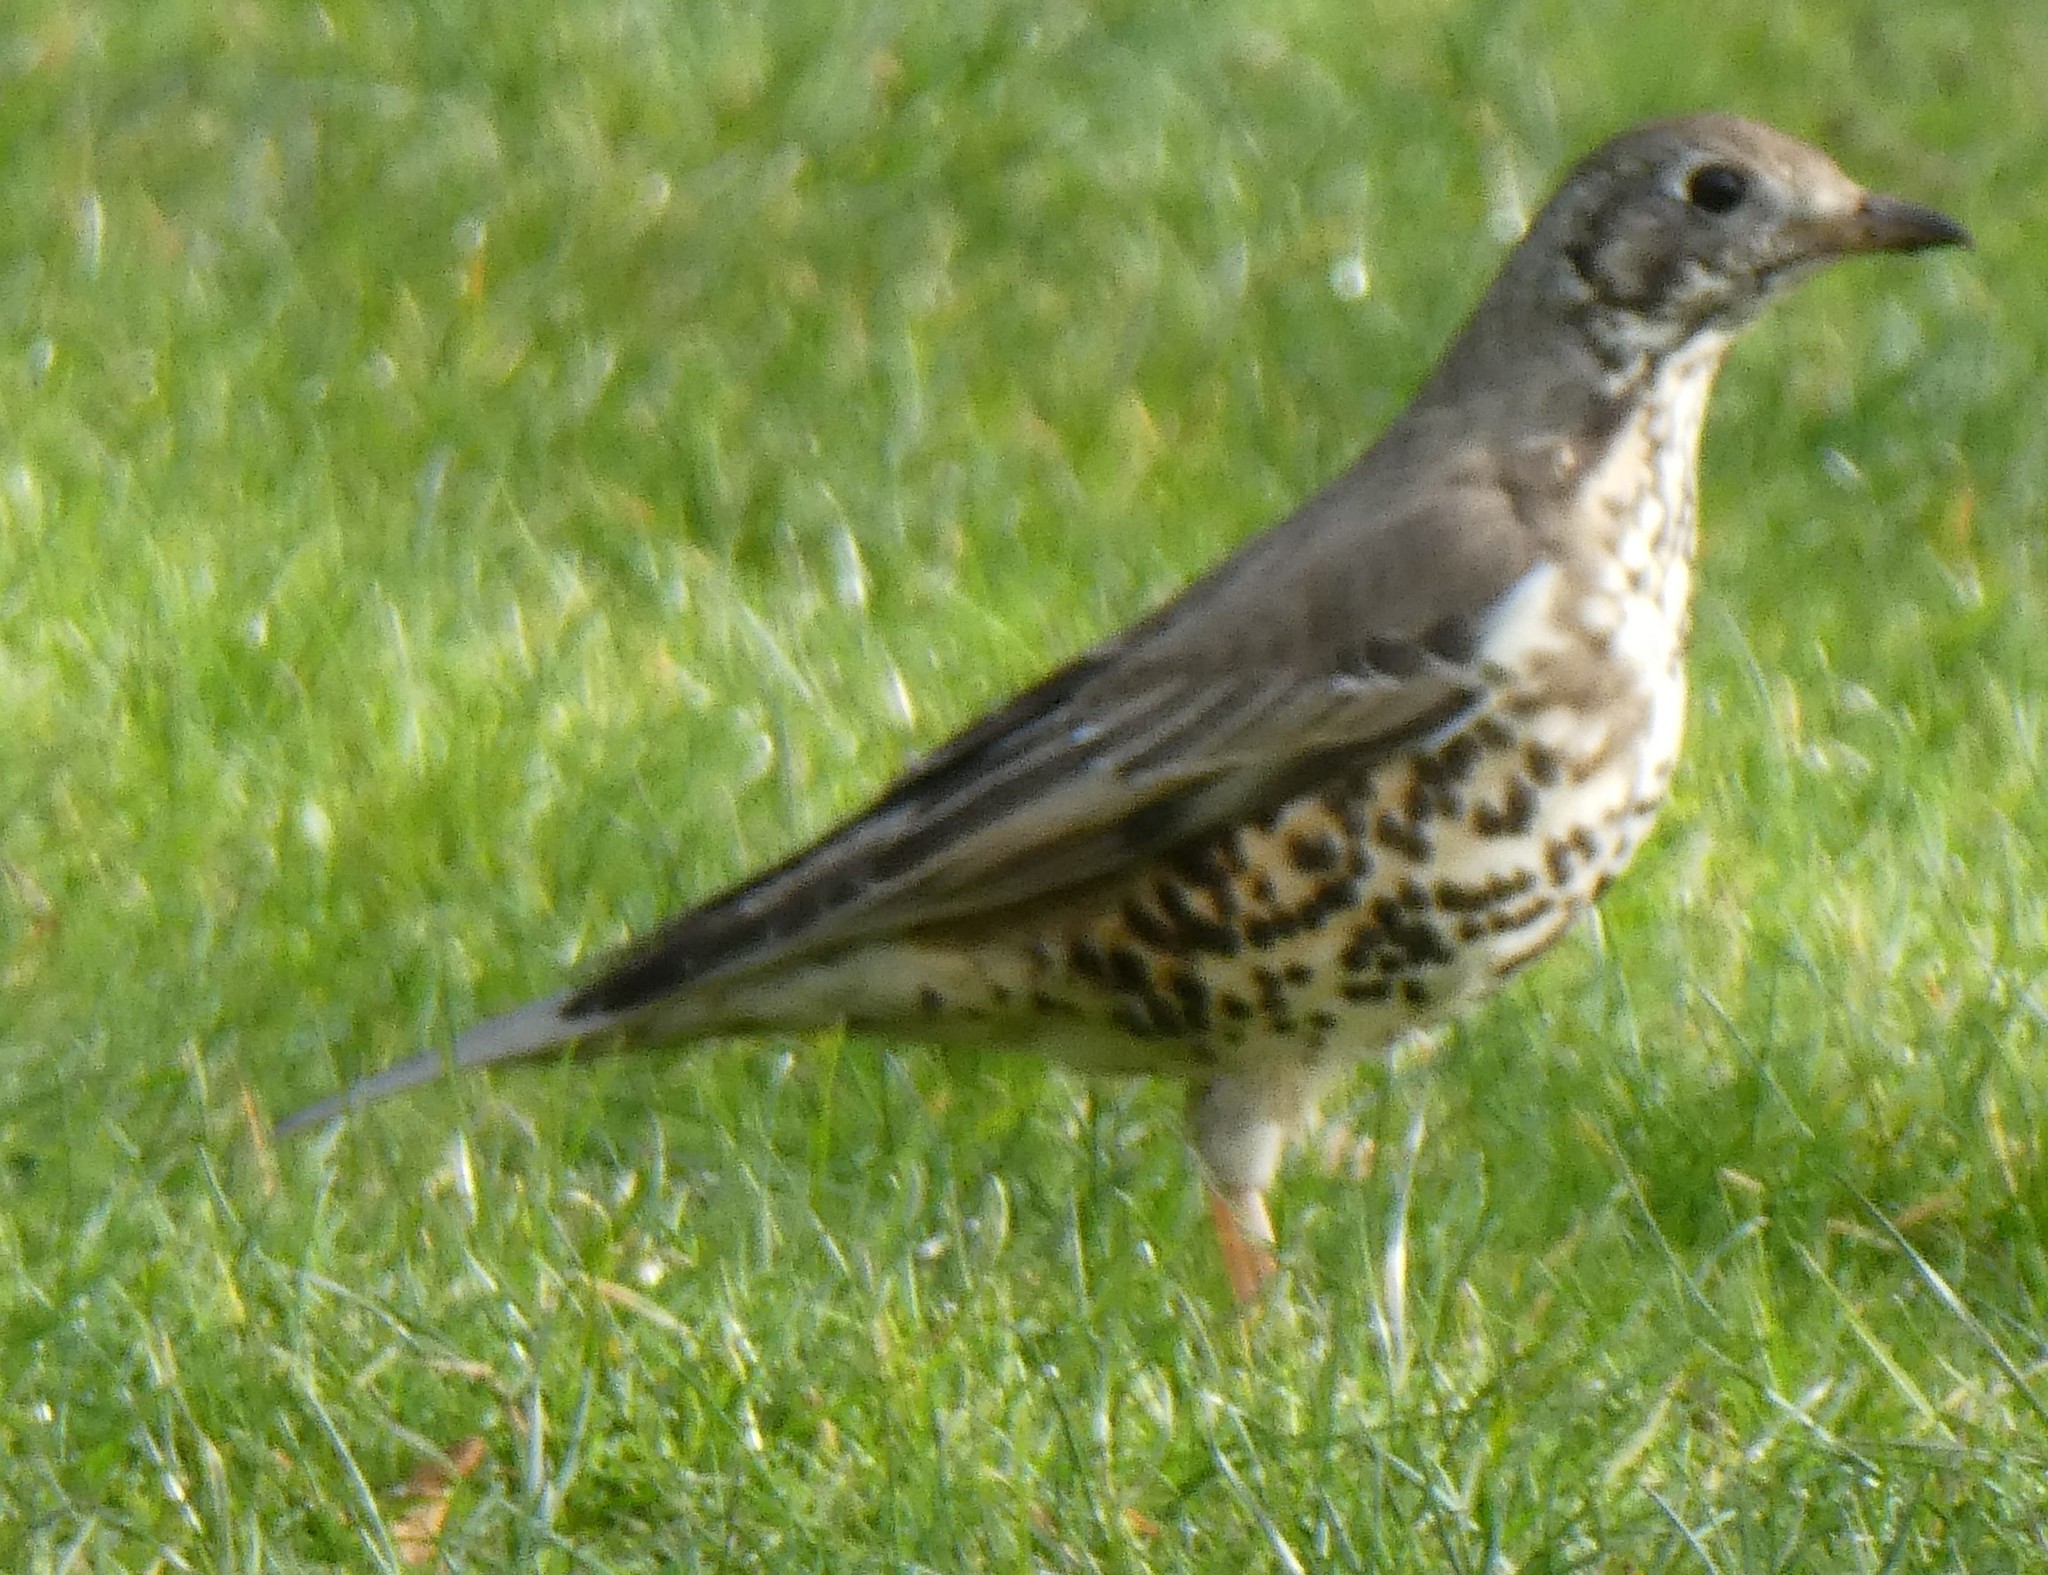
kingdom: Animalia
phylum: Chordata
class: Aves
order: Passeriformes
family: Turdidae
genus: Turdus
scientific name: Turdus viscivorus
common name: Mistle thrush
